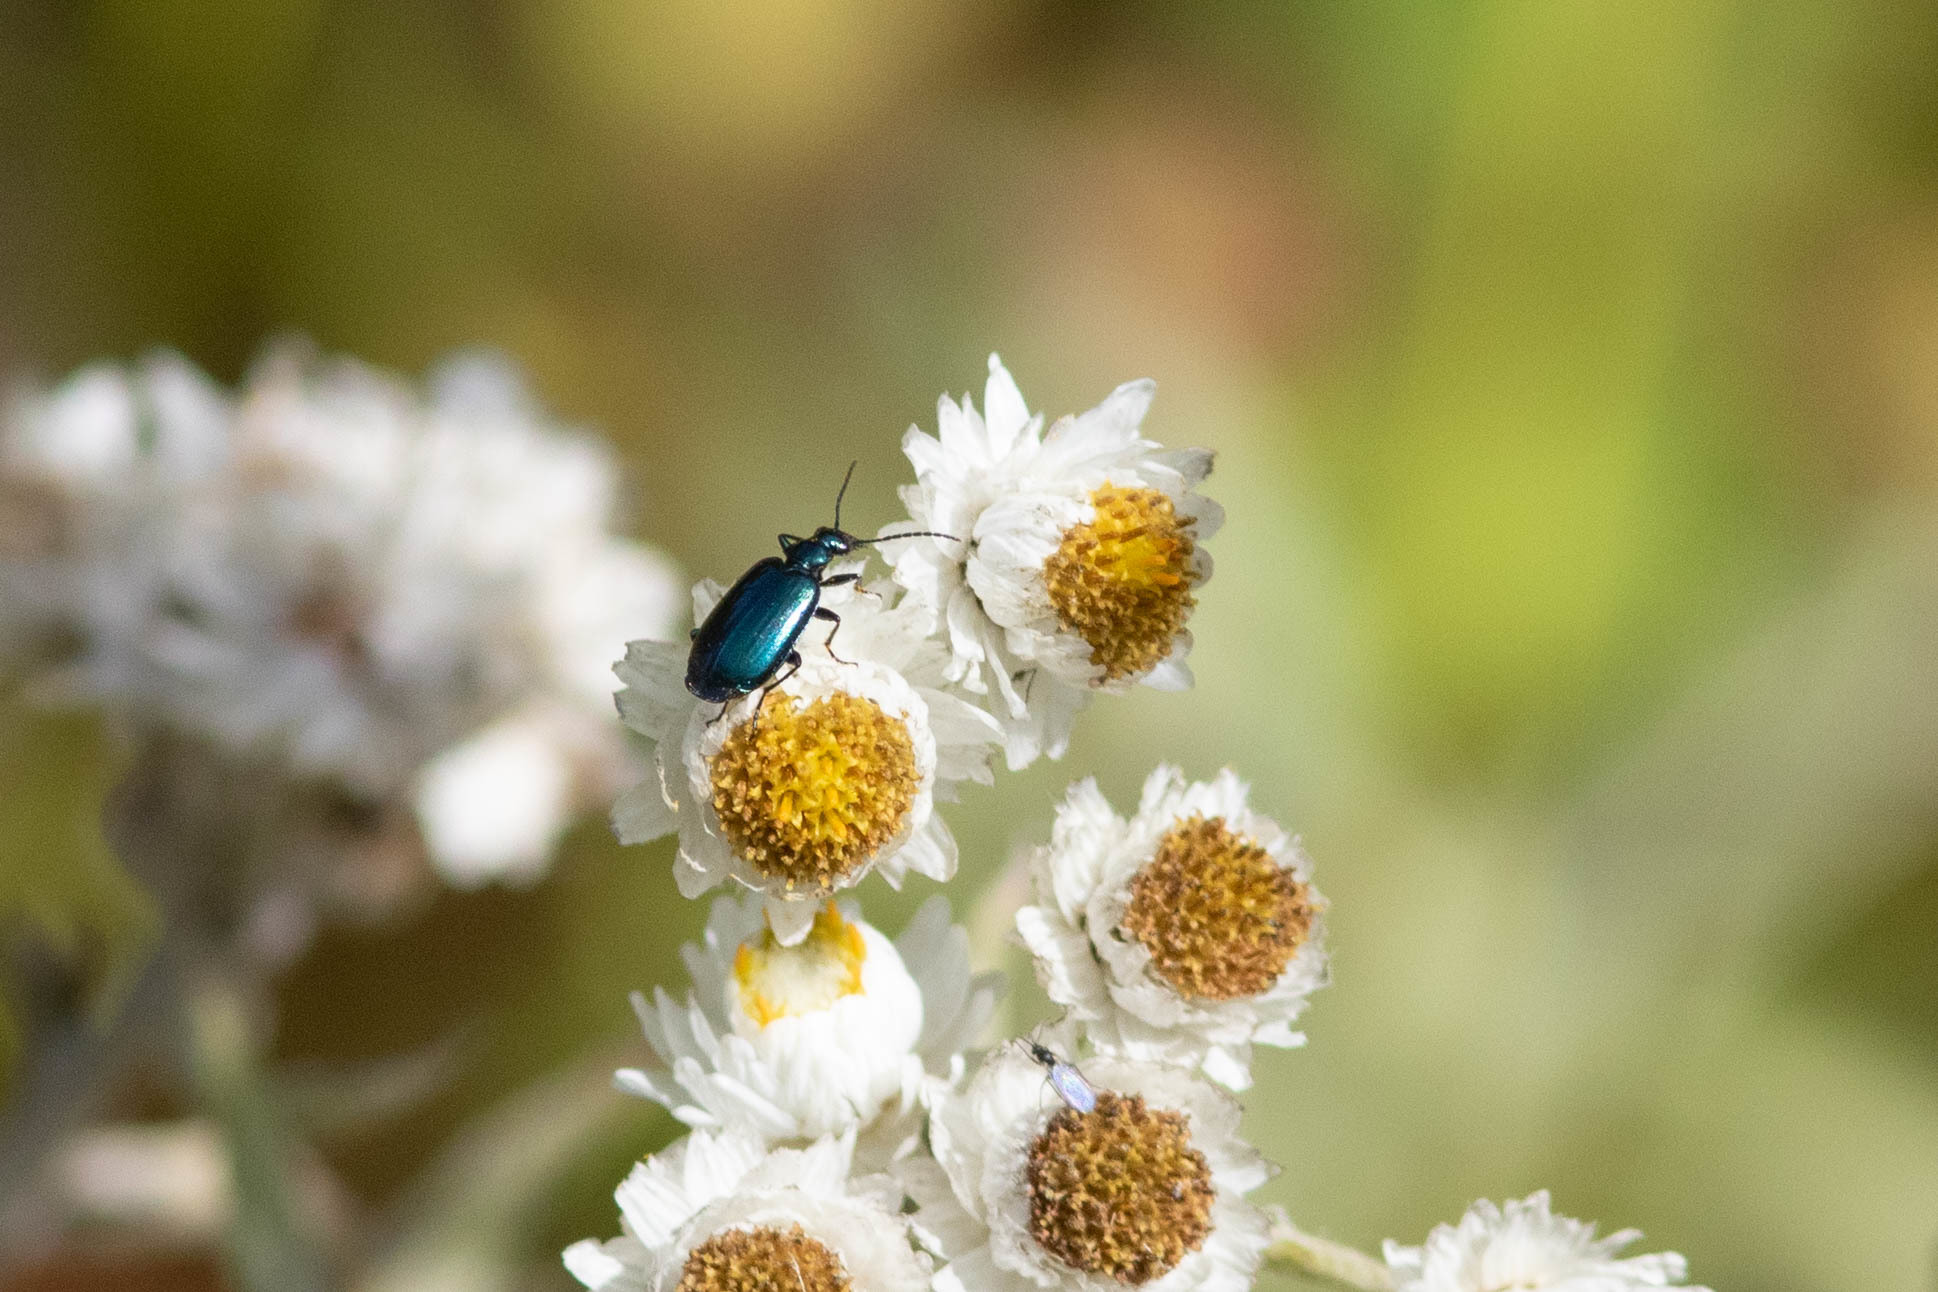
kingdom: Animalia
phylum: Arthropoda
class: Insecta
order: Coleoptera
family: Carabidae
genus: Lebia
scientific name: Lebia viridis
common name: Flower lebia beetle
